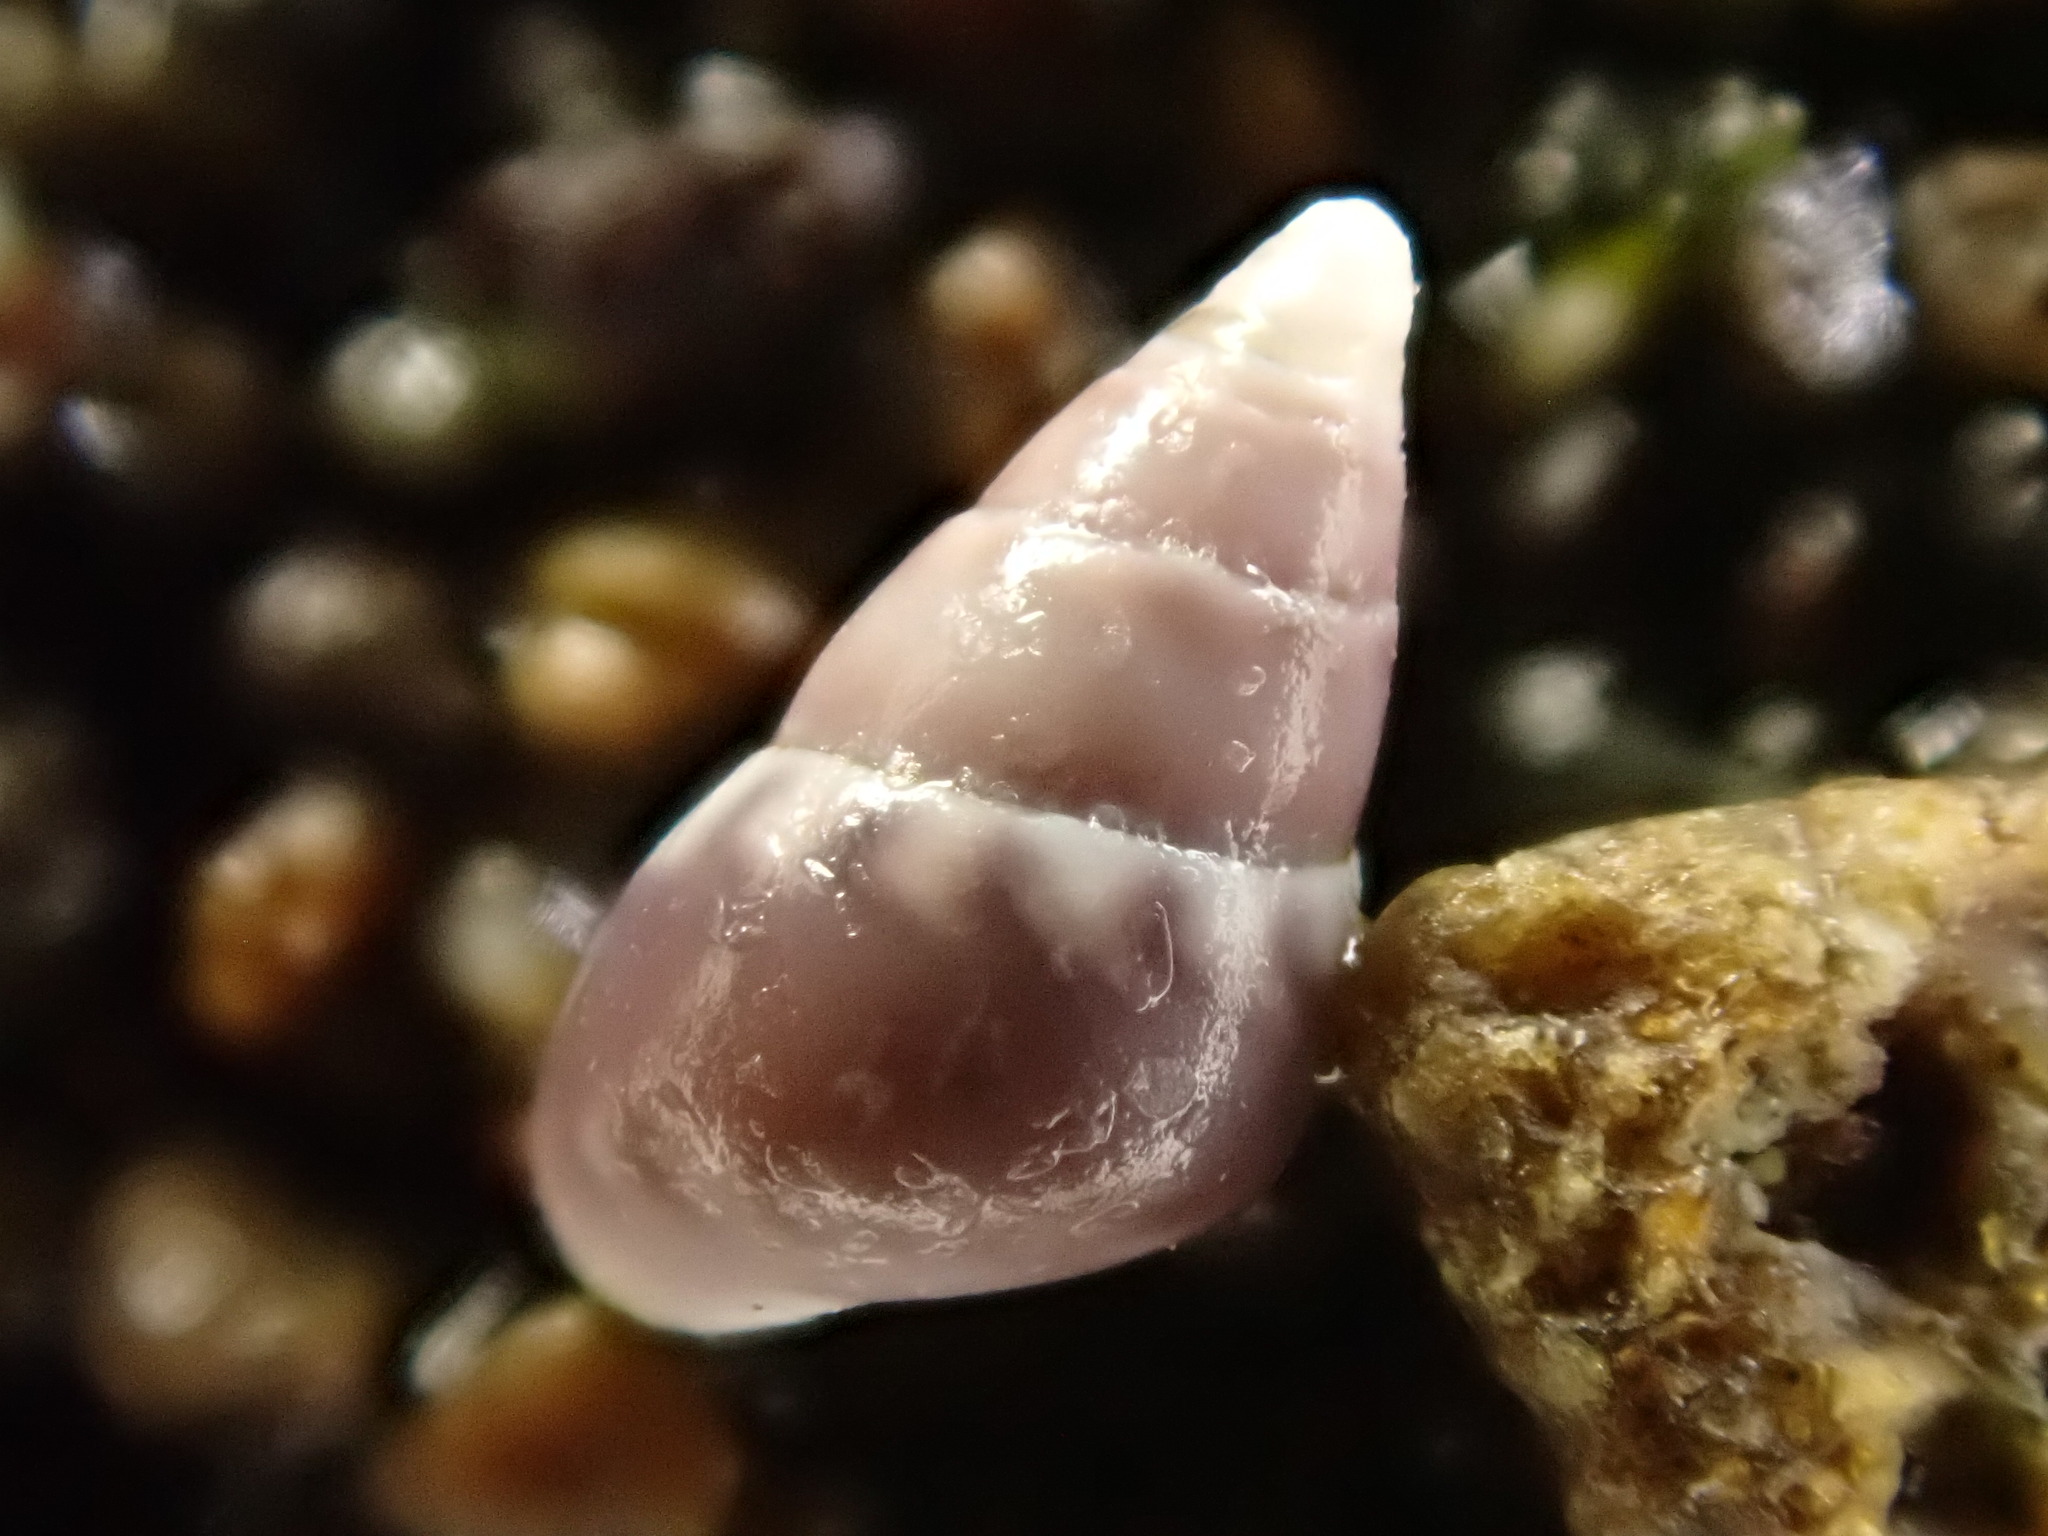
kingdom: Animalia
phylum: Mollusca
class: Gastropoda
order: Littorinimorpha
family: Eatoniellidae
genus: Eatoniella
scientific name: Eatoniella
